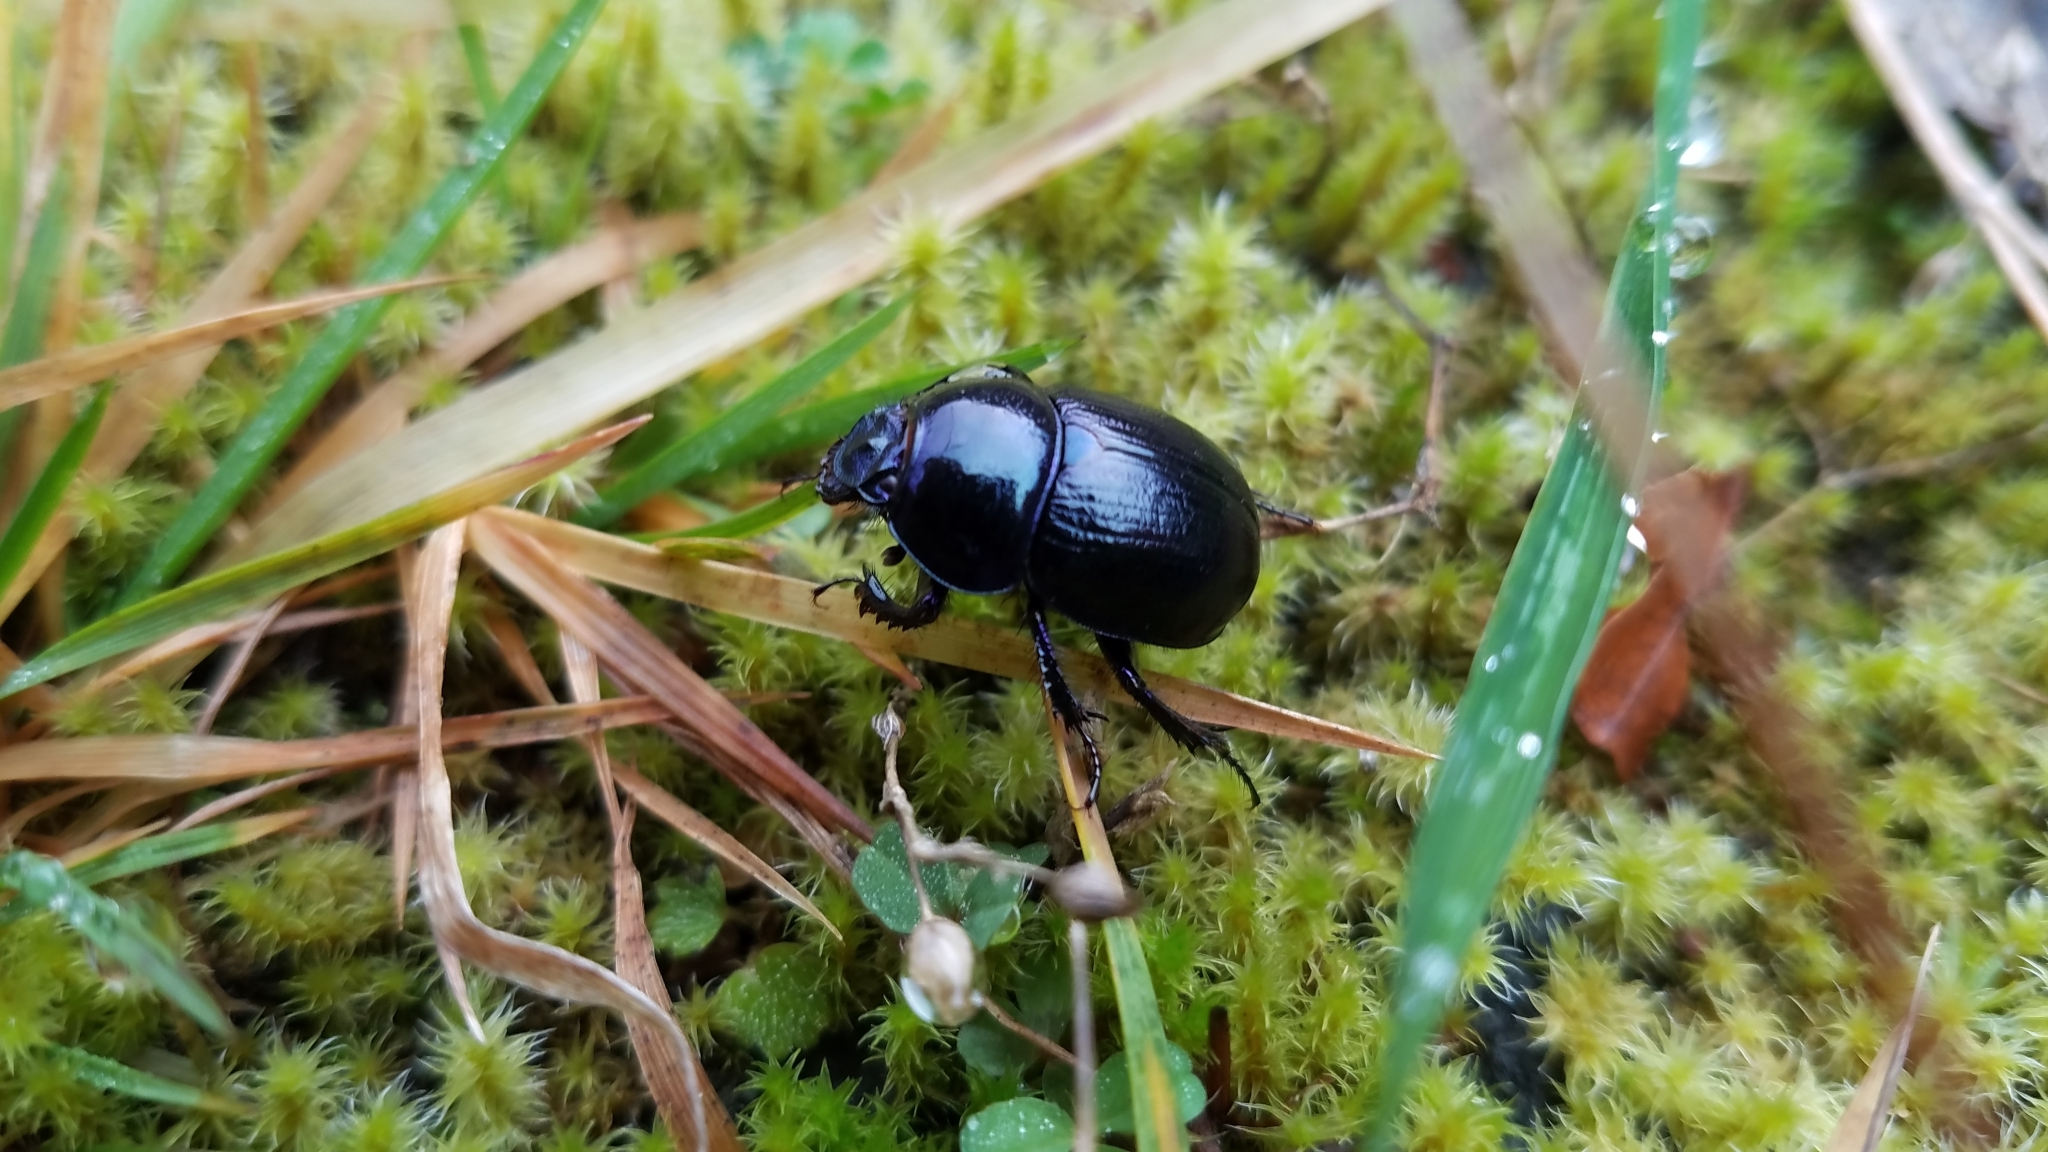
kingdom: Animalia
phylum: Arthropoda
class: Insecta
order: Coleoptera
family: Geotrupidae
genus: Anoplotrupes
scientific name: Anoplotrupes stercorosus
